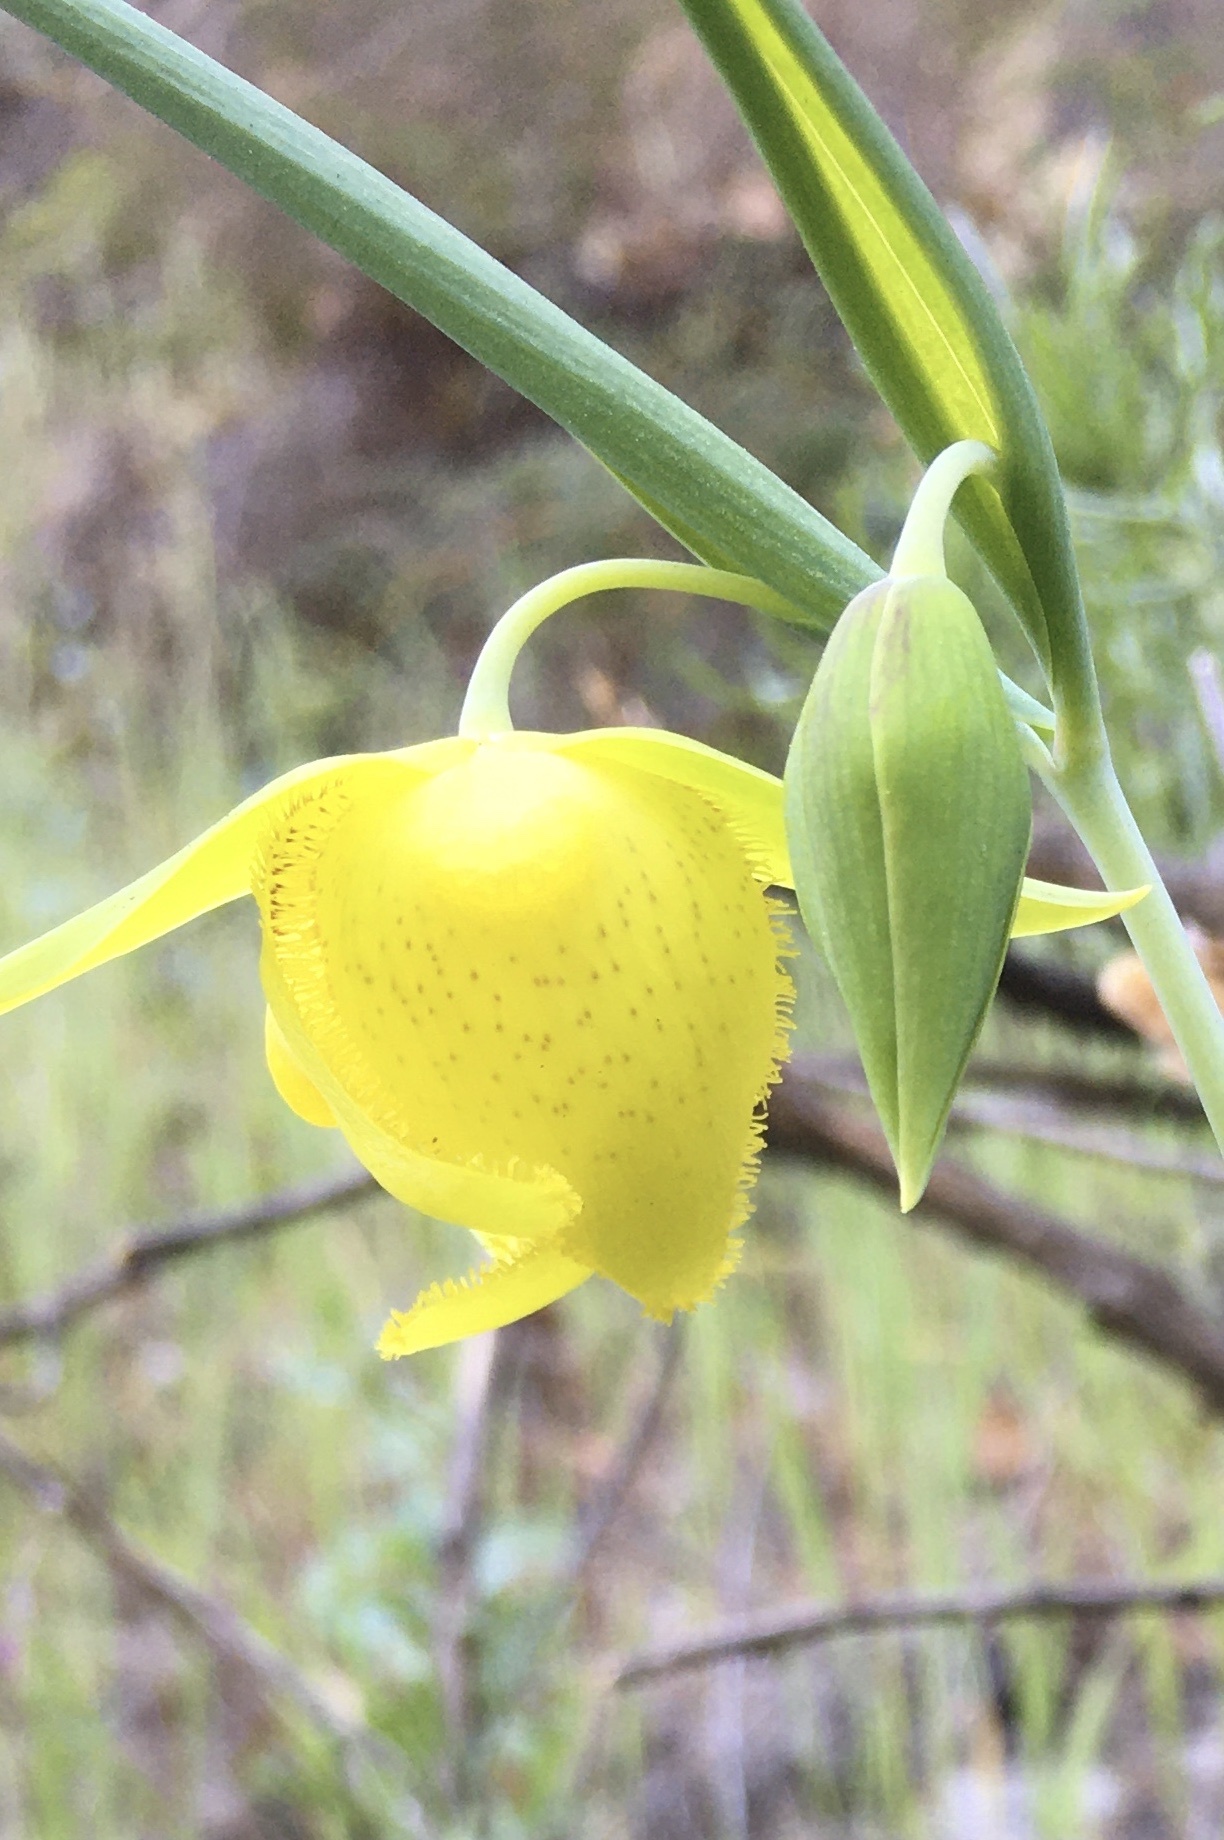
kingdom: Plantae
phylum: Tracheophyta
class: Liliopsida
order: Liliales
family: Liliaceae
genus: Calochortus
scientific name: Calochortus pulchellus
